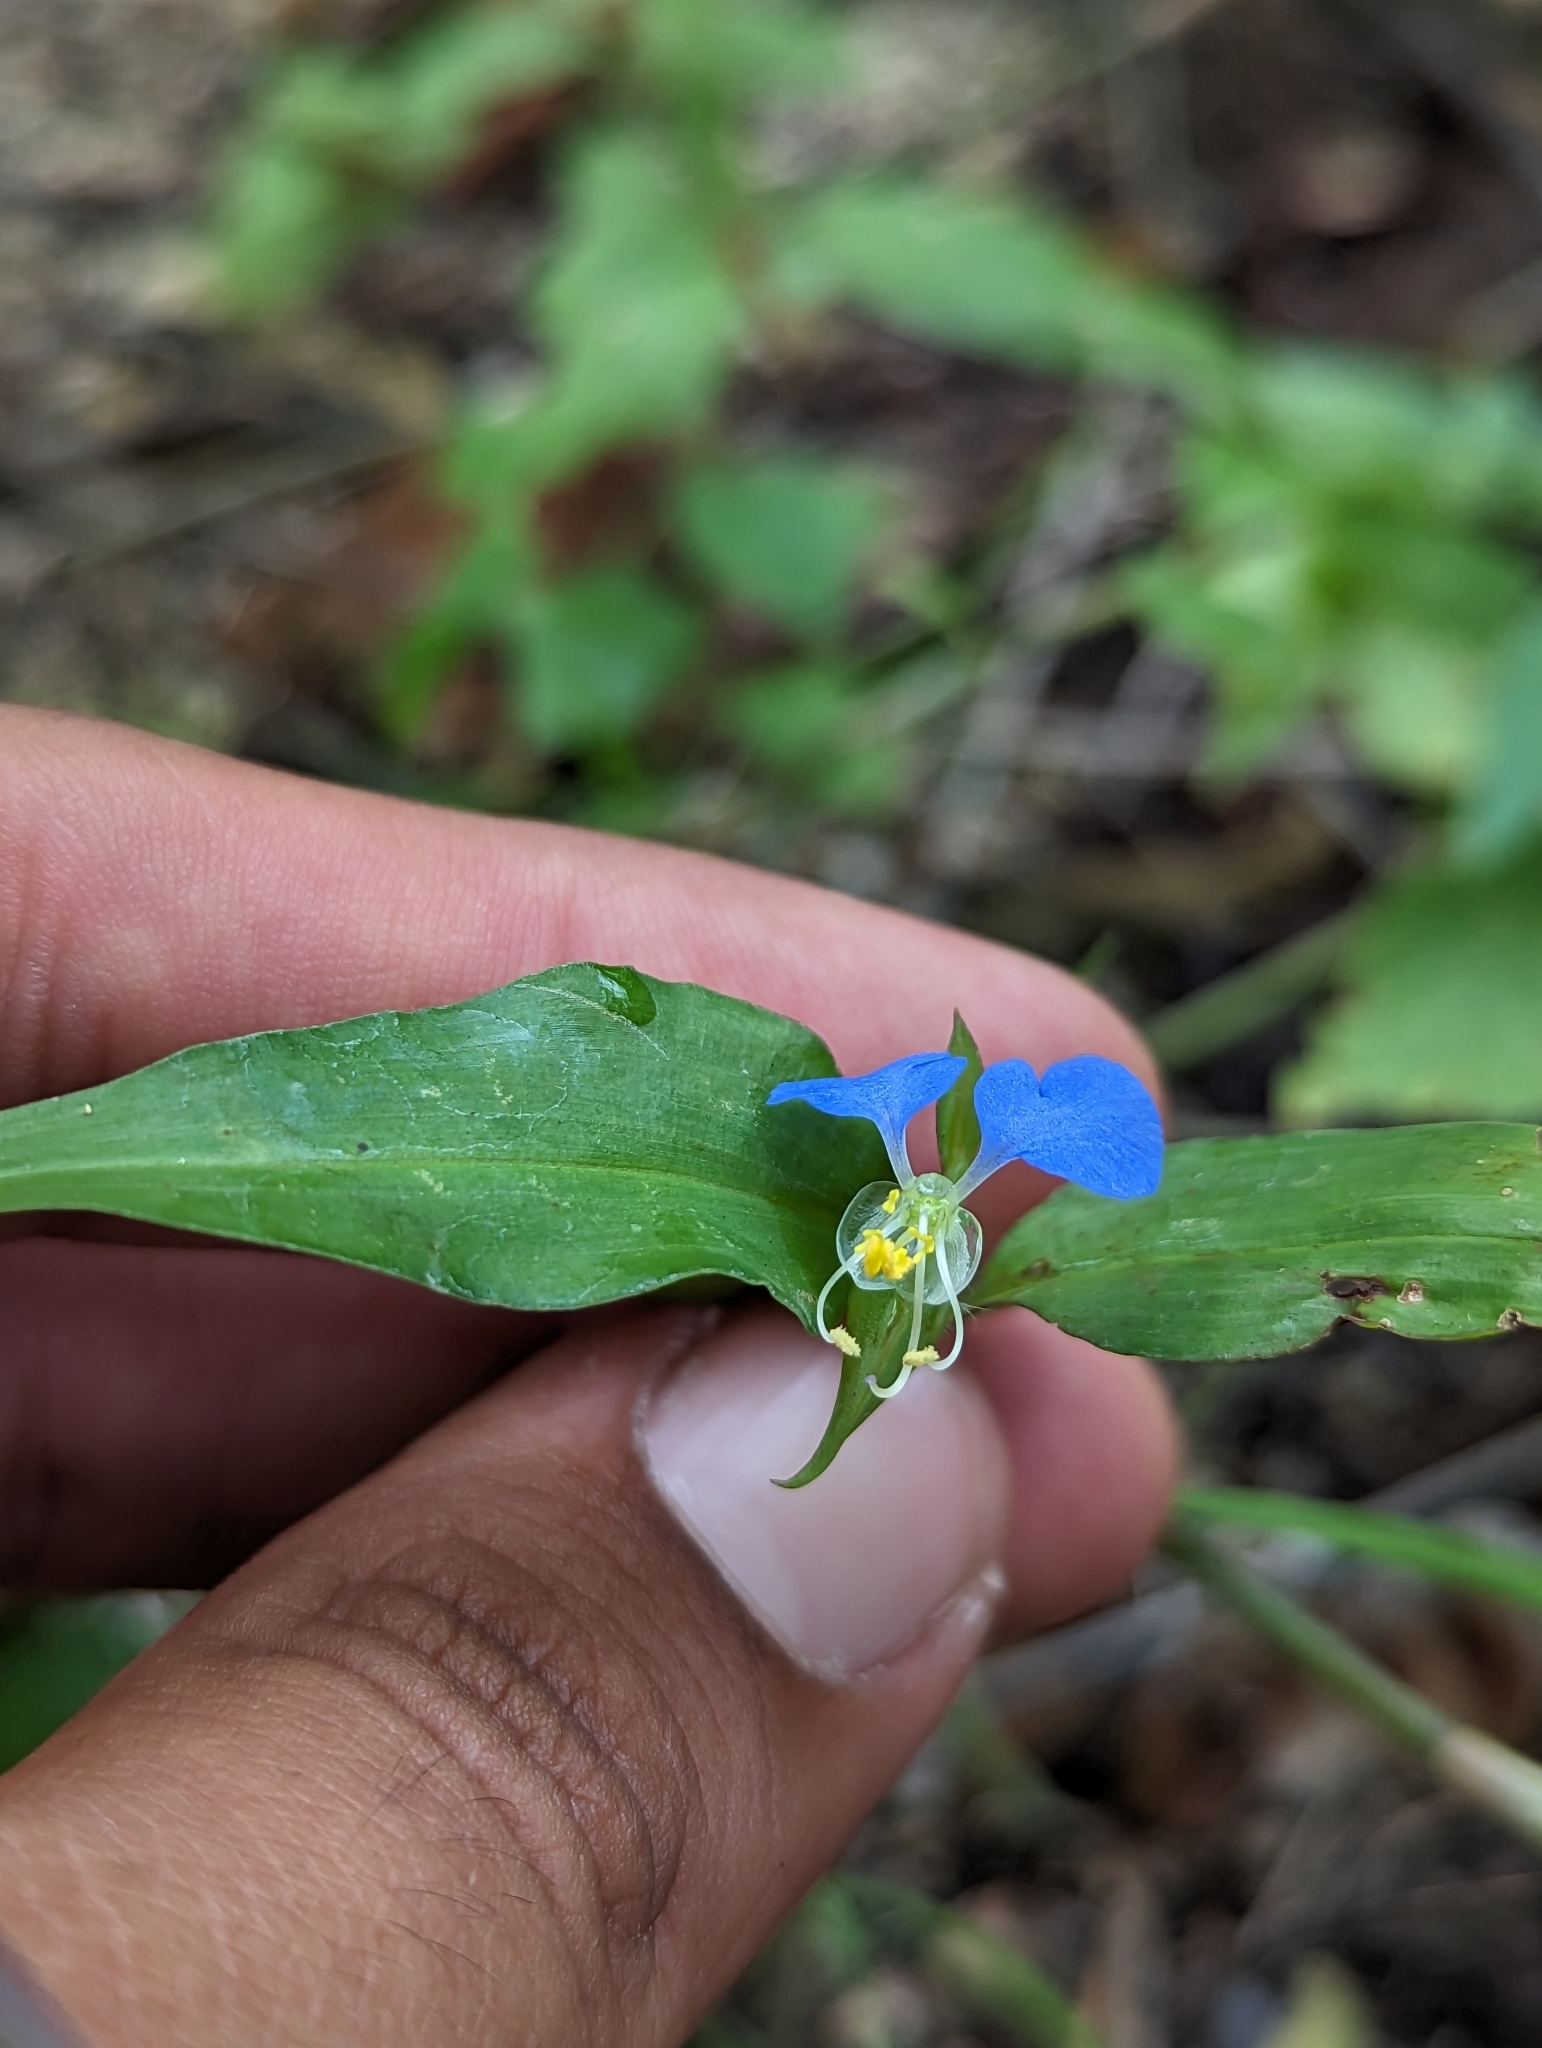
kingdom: Plantae
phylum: Tracheophyta
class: Liliopsida
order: Commelinales
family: Commelinaceae
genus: Commelina
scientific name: Commelina erecta
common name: Blousel blommetjie
